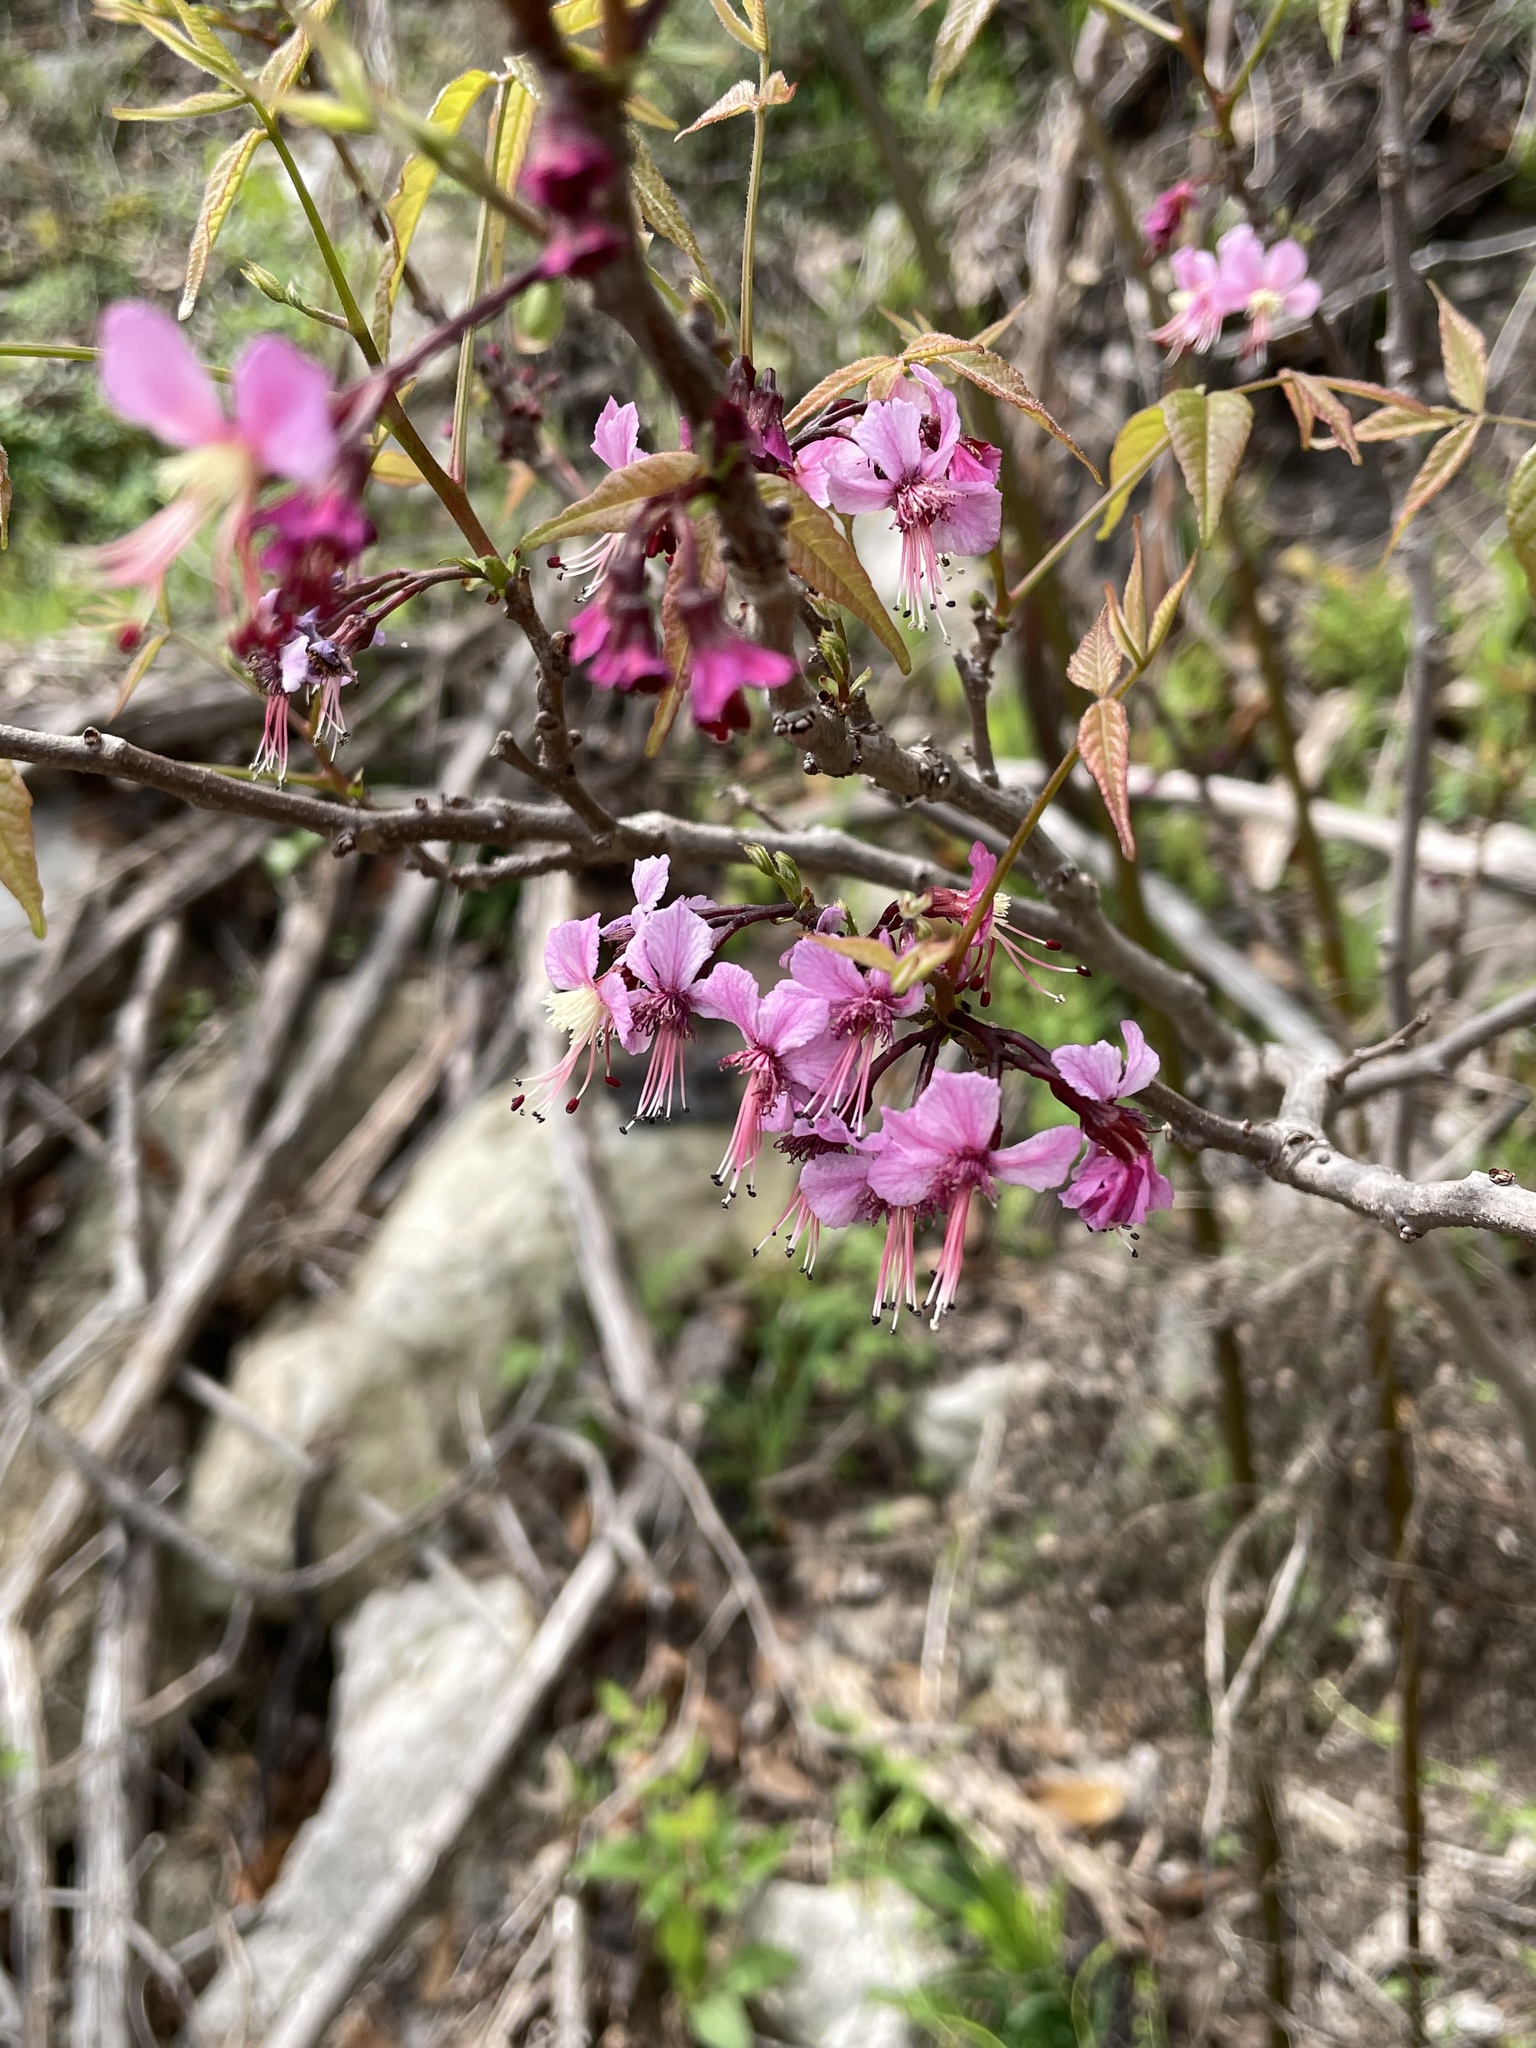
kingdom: Plantae
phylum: Tracheophyta
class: Magnoliopsida
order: Sapindales
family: Sapindaceae
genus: Ungnadia
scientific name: Ungnadia speciosa
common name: Texas-buckeye
